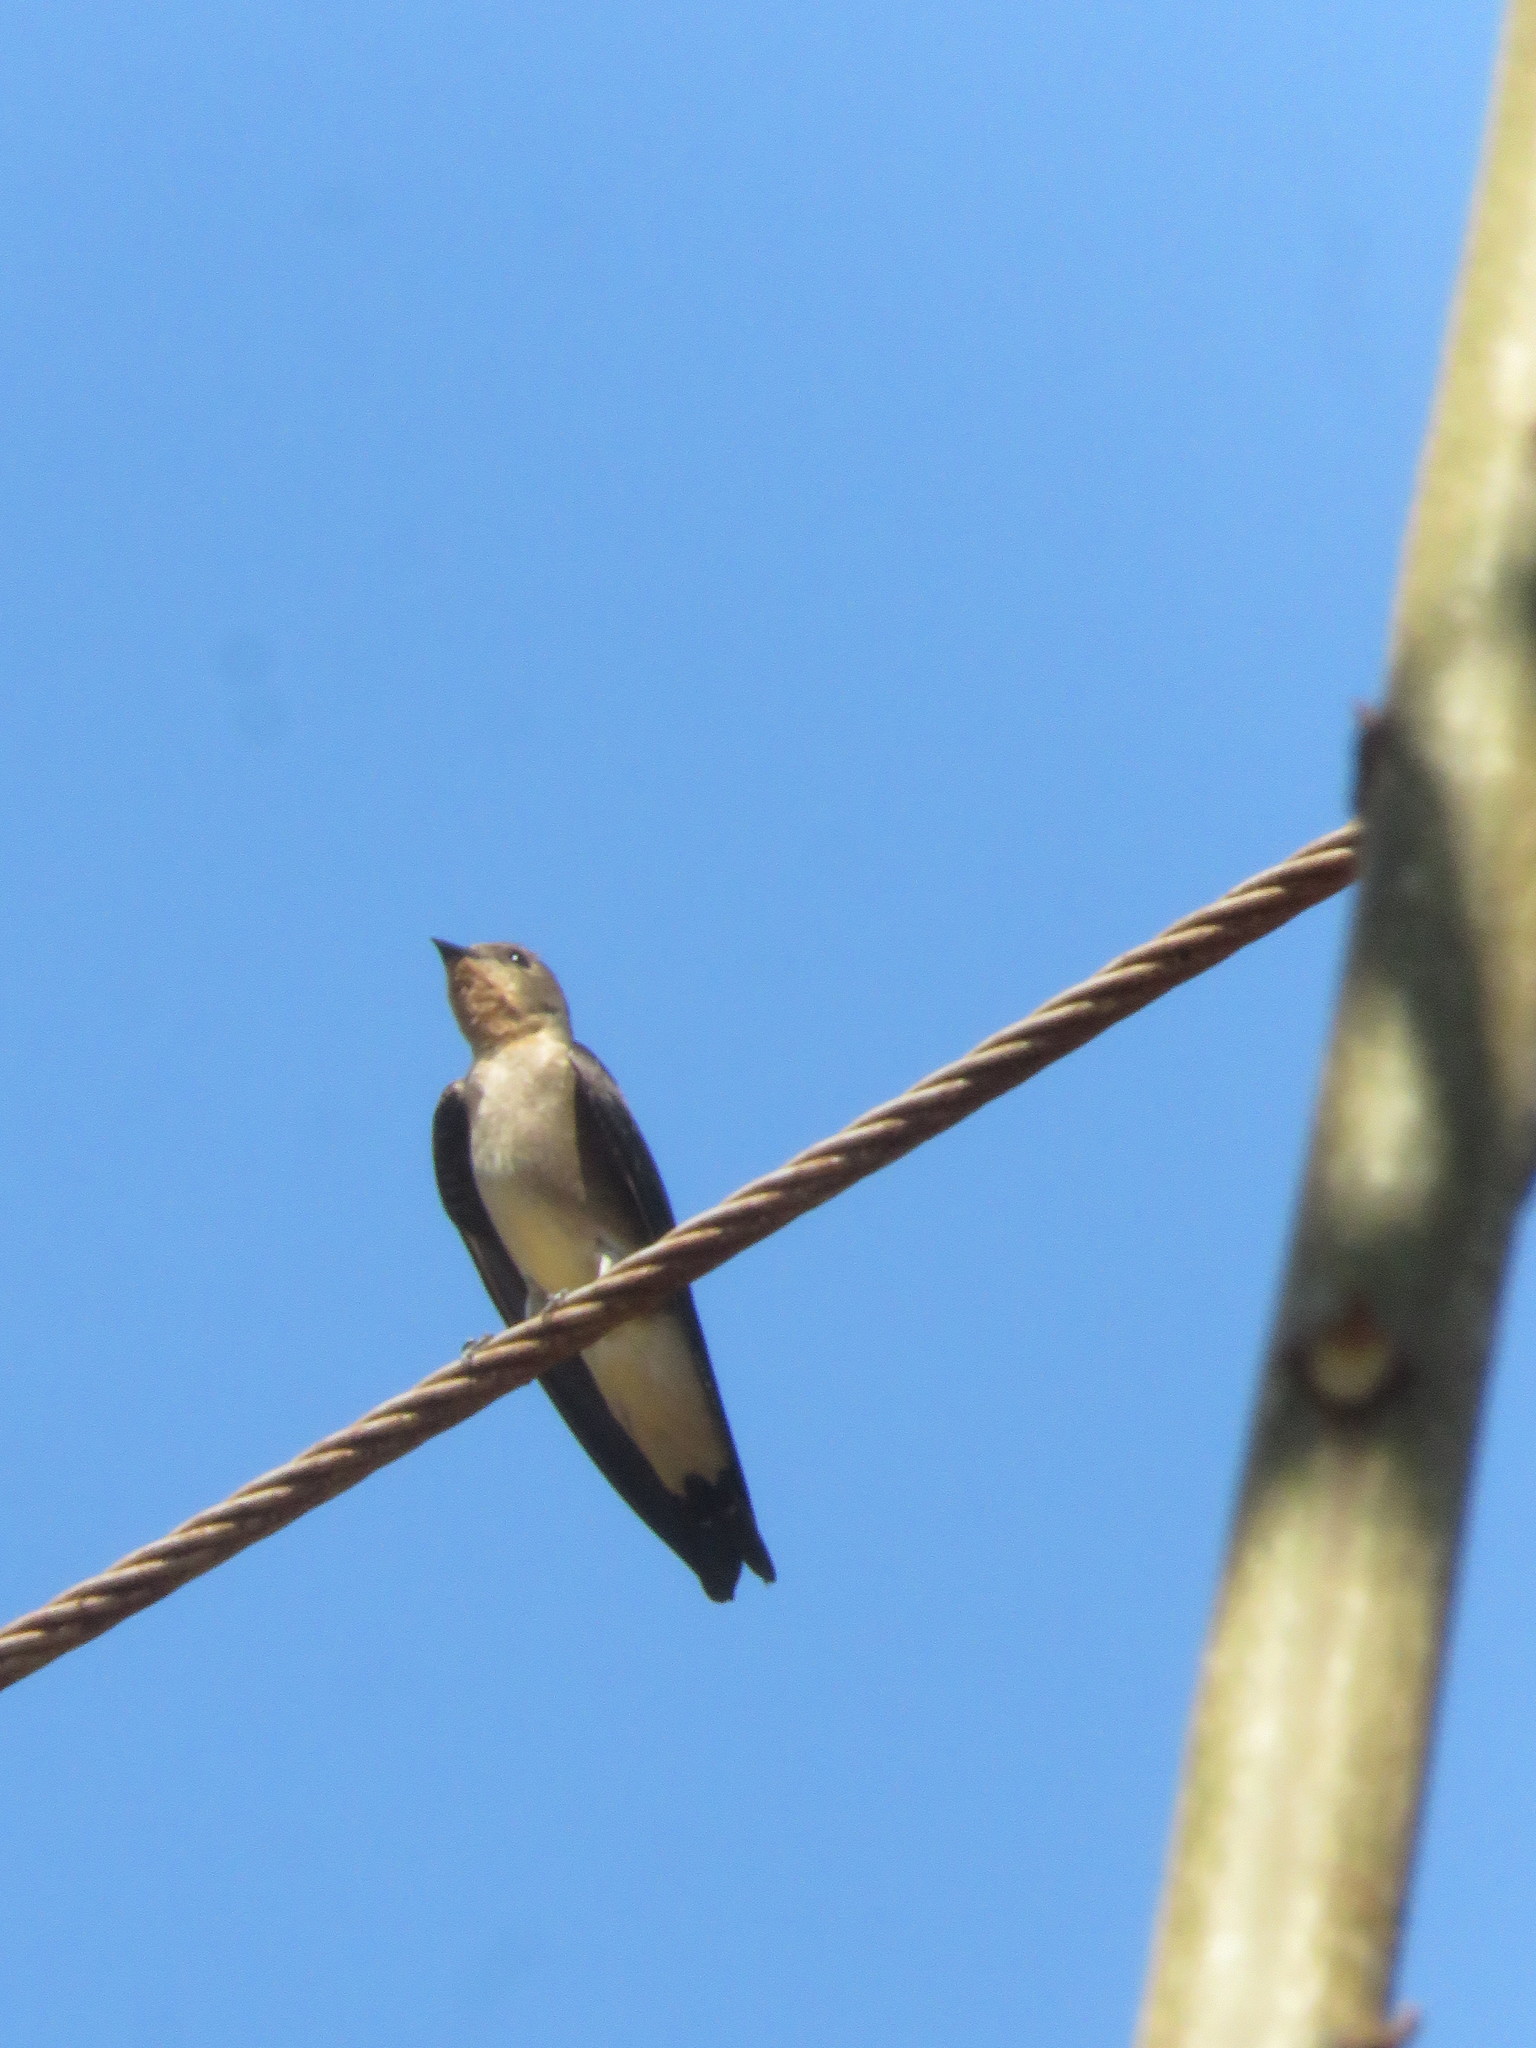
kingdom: Animalia
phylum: Chordata
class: Aves
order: Passeriformes
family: Hirundinidae
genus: Stelgidopteryx
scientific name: Stelgidopteryx ruficollis
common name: Southern rough-winged swallow
